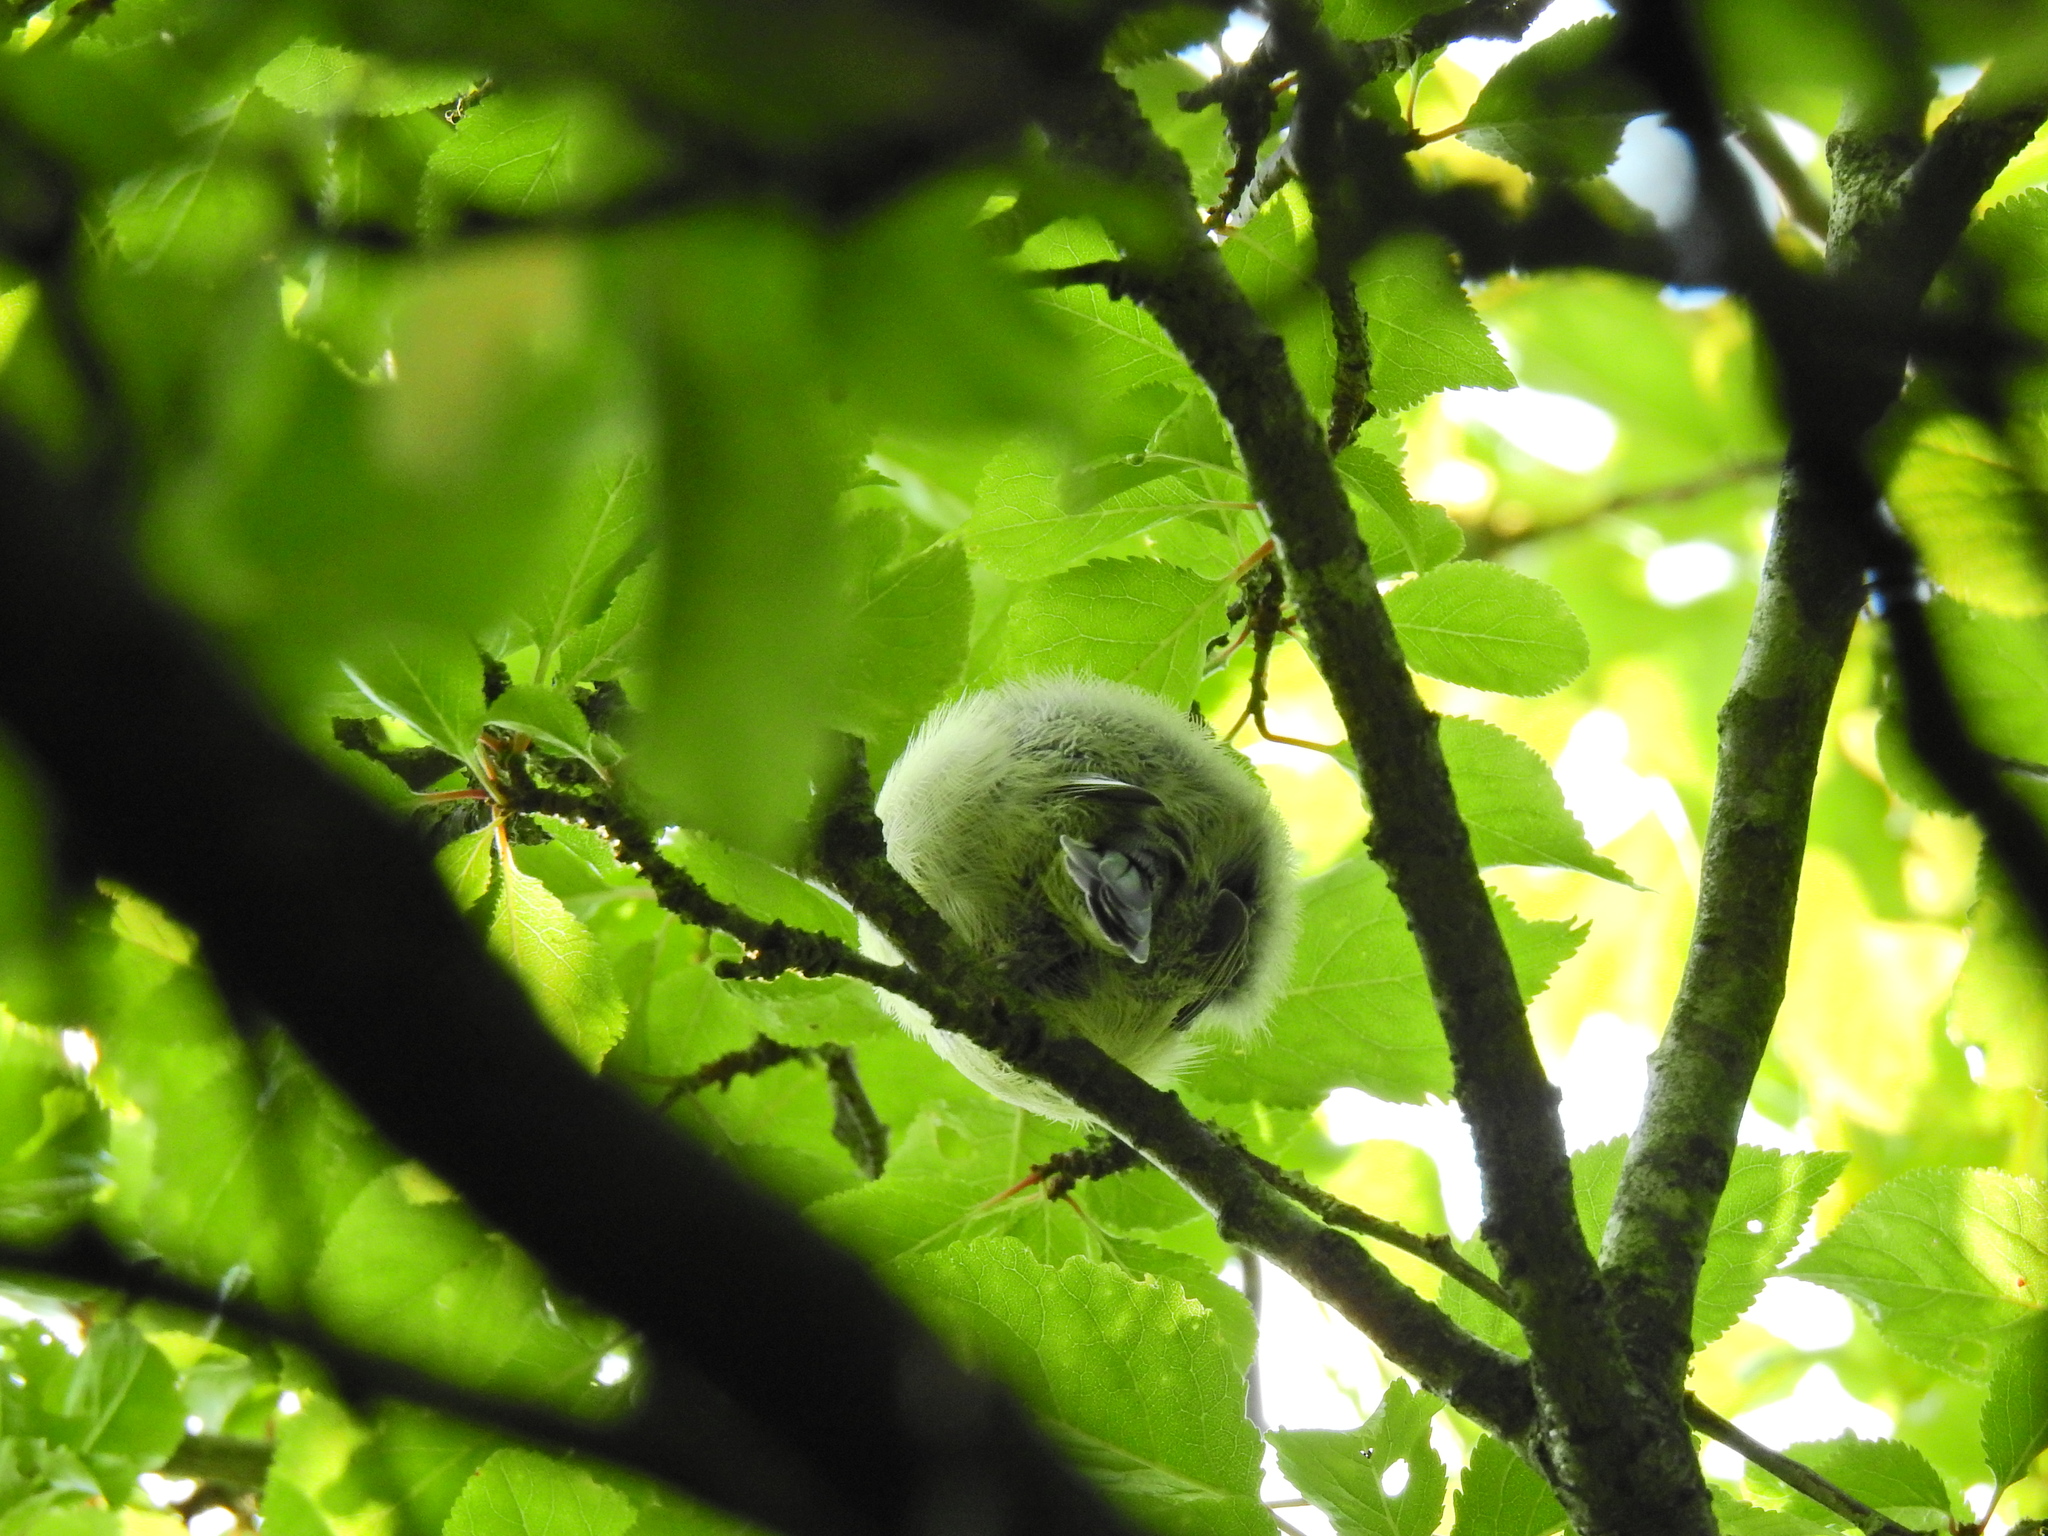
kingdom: Animalia
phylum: Chordata
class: Aves
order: Passeriformes
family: Paridae
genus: Cyanistes
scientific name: Cyanistes caeruleus
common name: Eurasian blue tit
